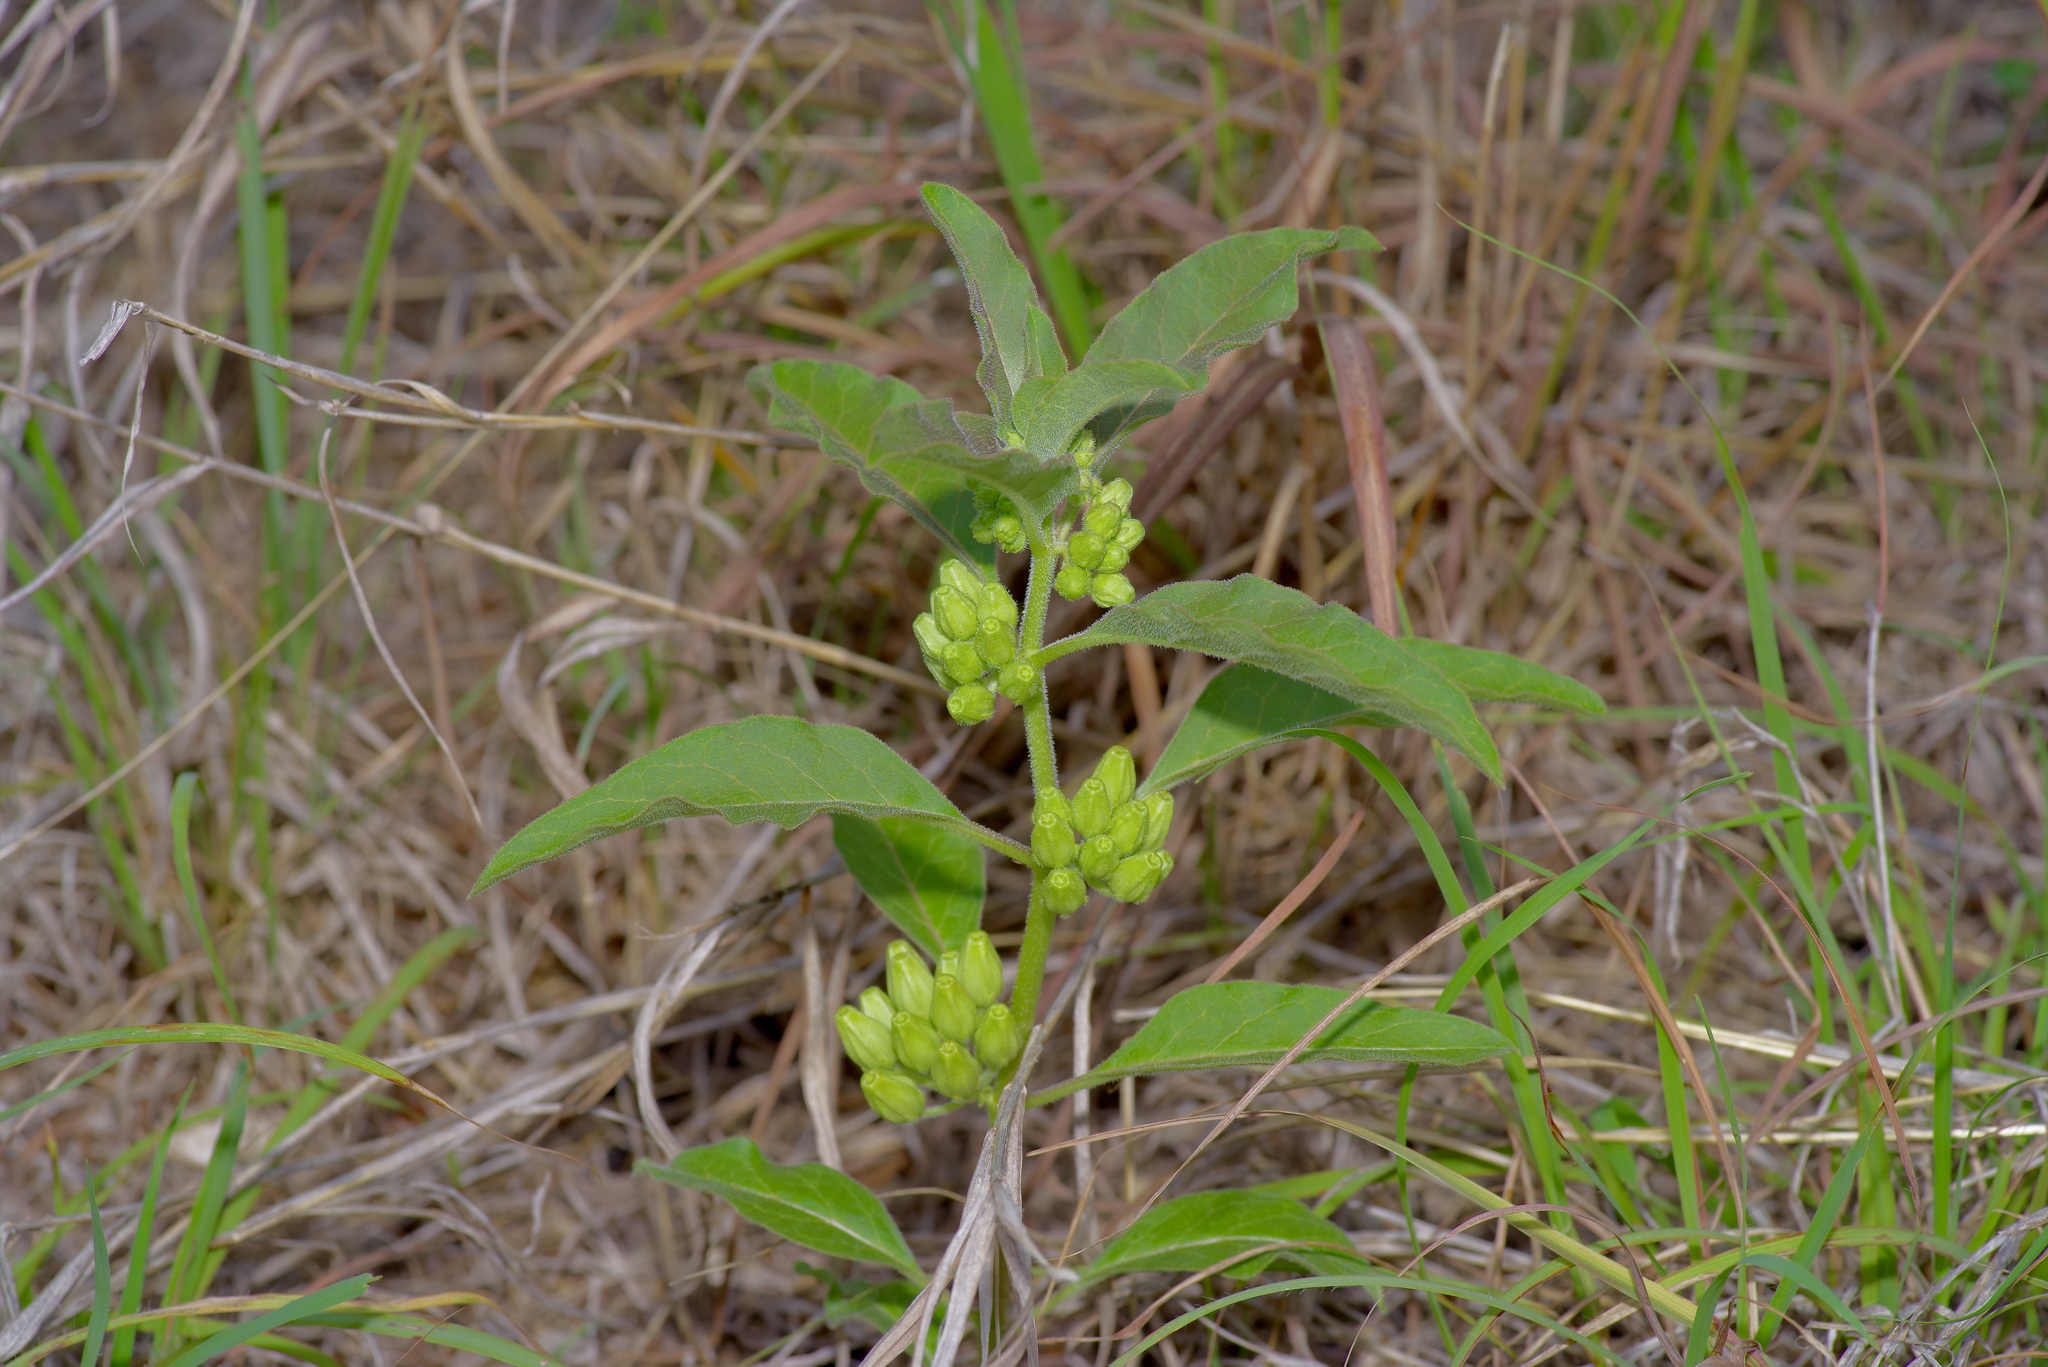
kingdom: Plantae
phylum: Tracheophyta
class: Magnoliopsida
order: Gentianales
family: Apocynaceae
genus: Asclepias
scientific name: Asclepias oenotheroides
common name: Zizotes milkweed
